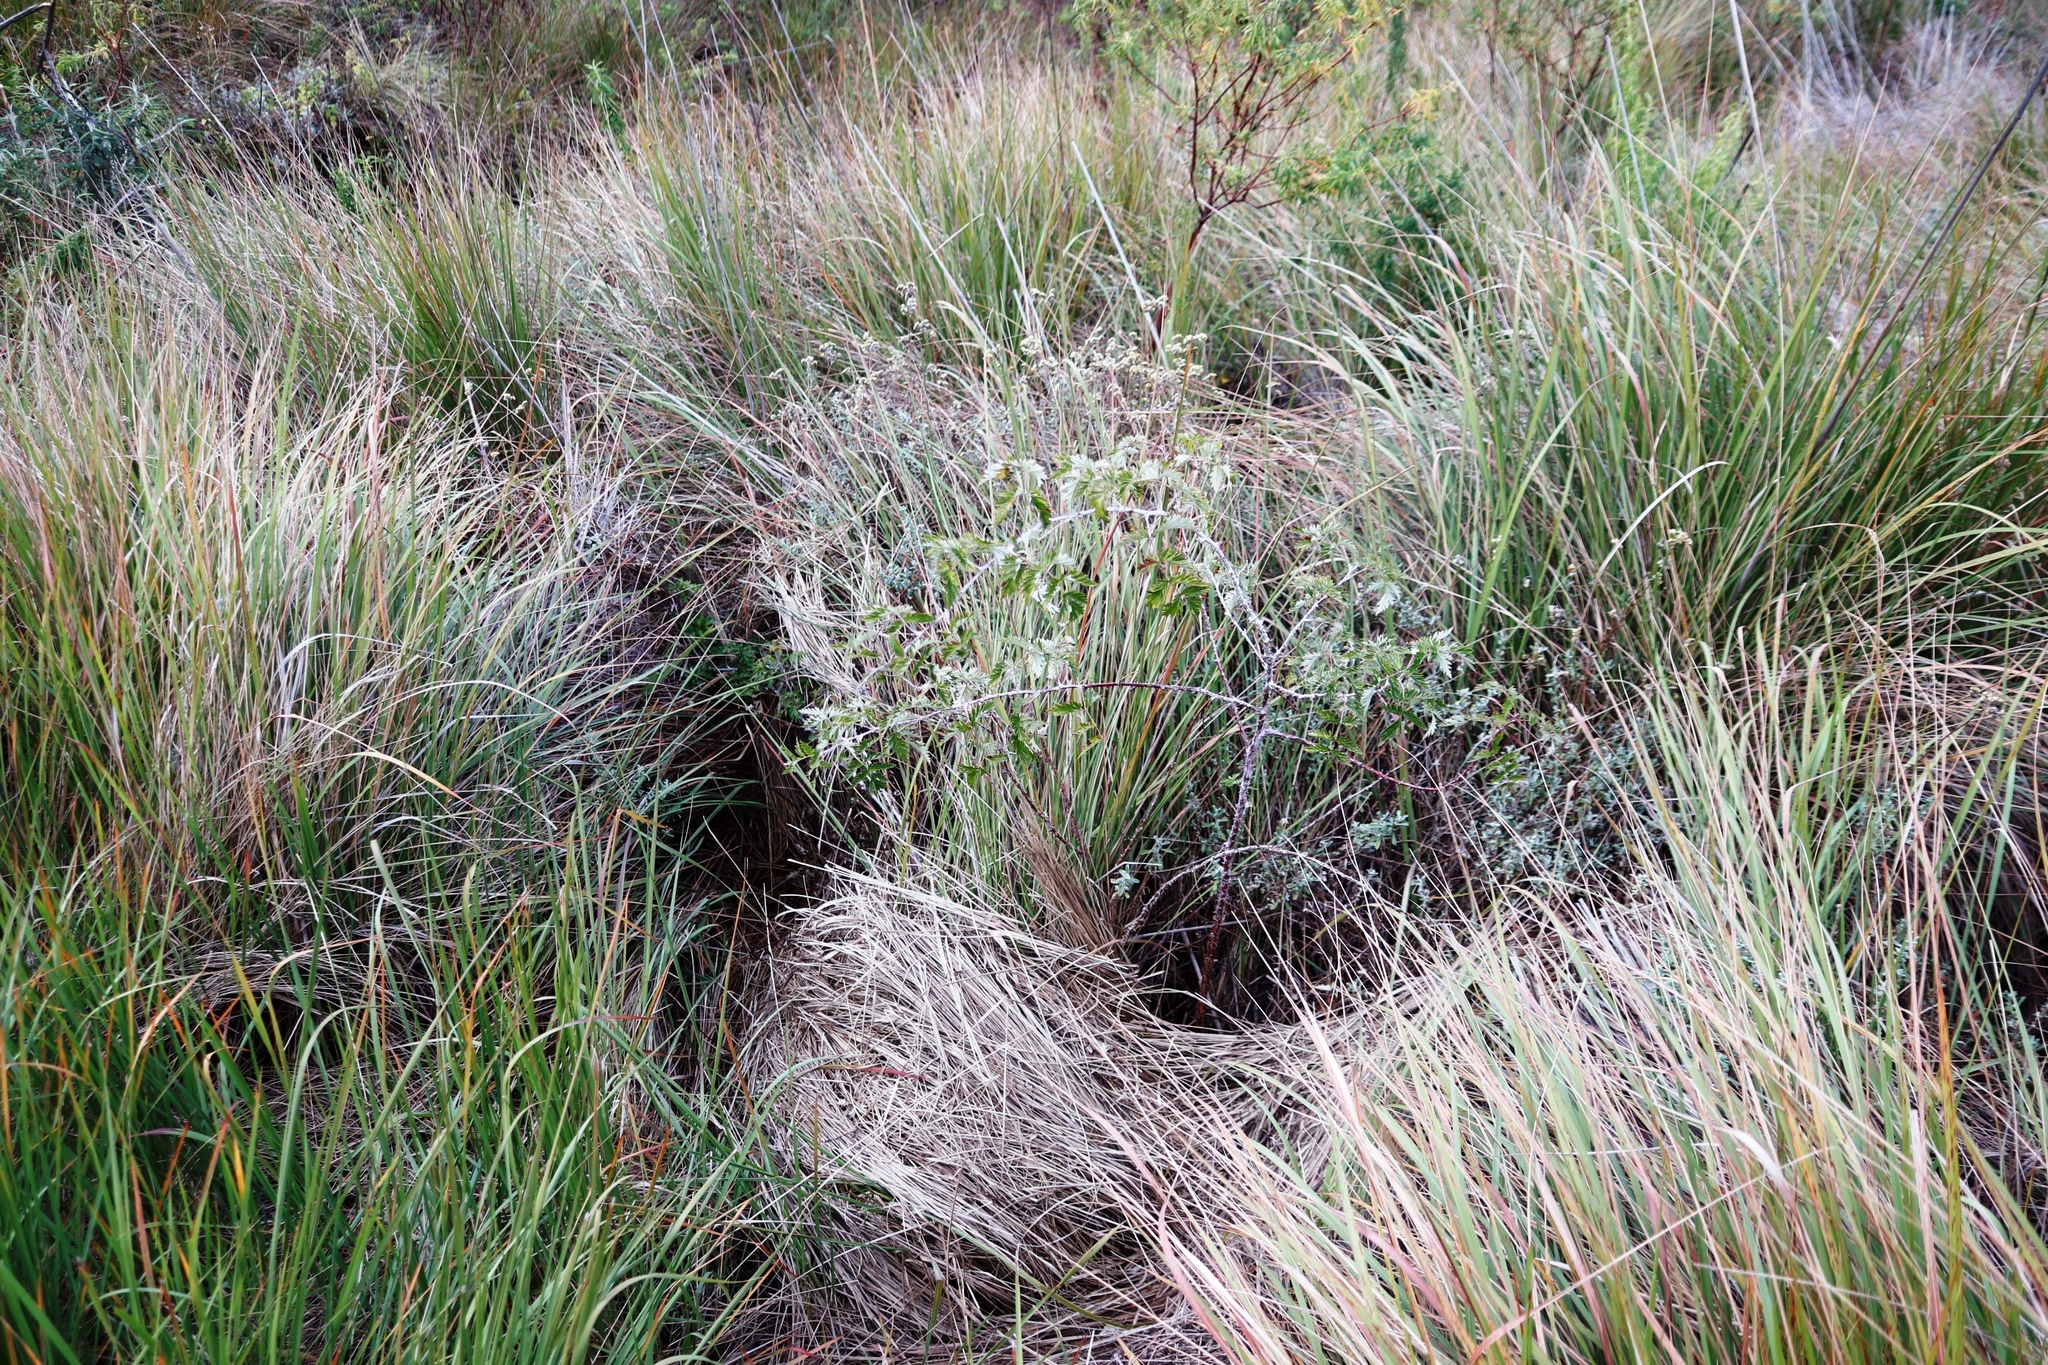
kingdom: Plantae
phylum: Tracheophyta
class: Magnoliopsida
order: Rosales
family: Rosaceae
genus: Rubus
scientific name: Rubus ludwigii
